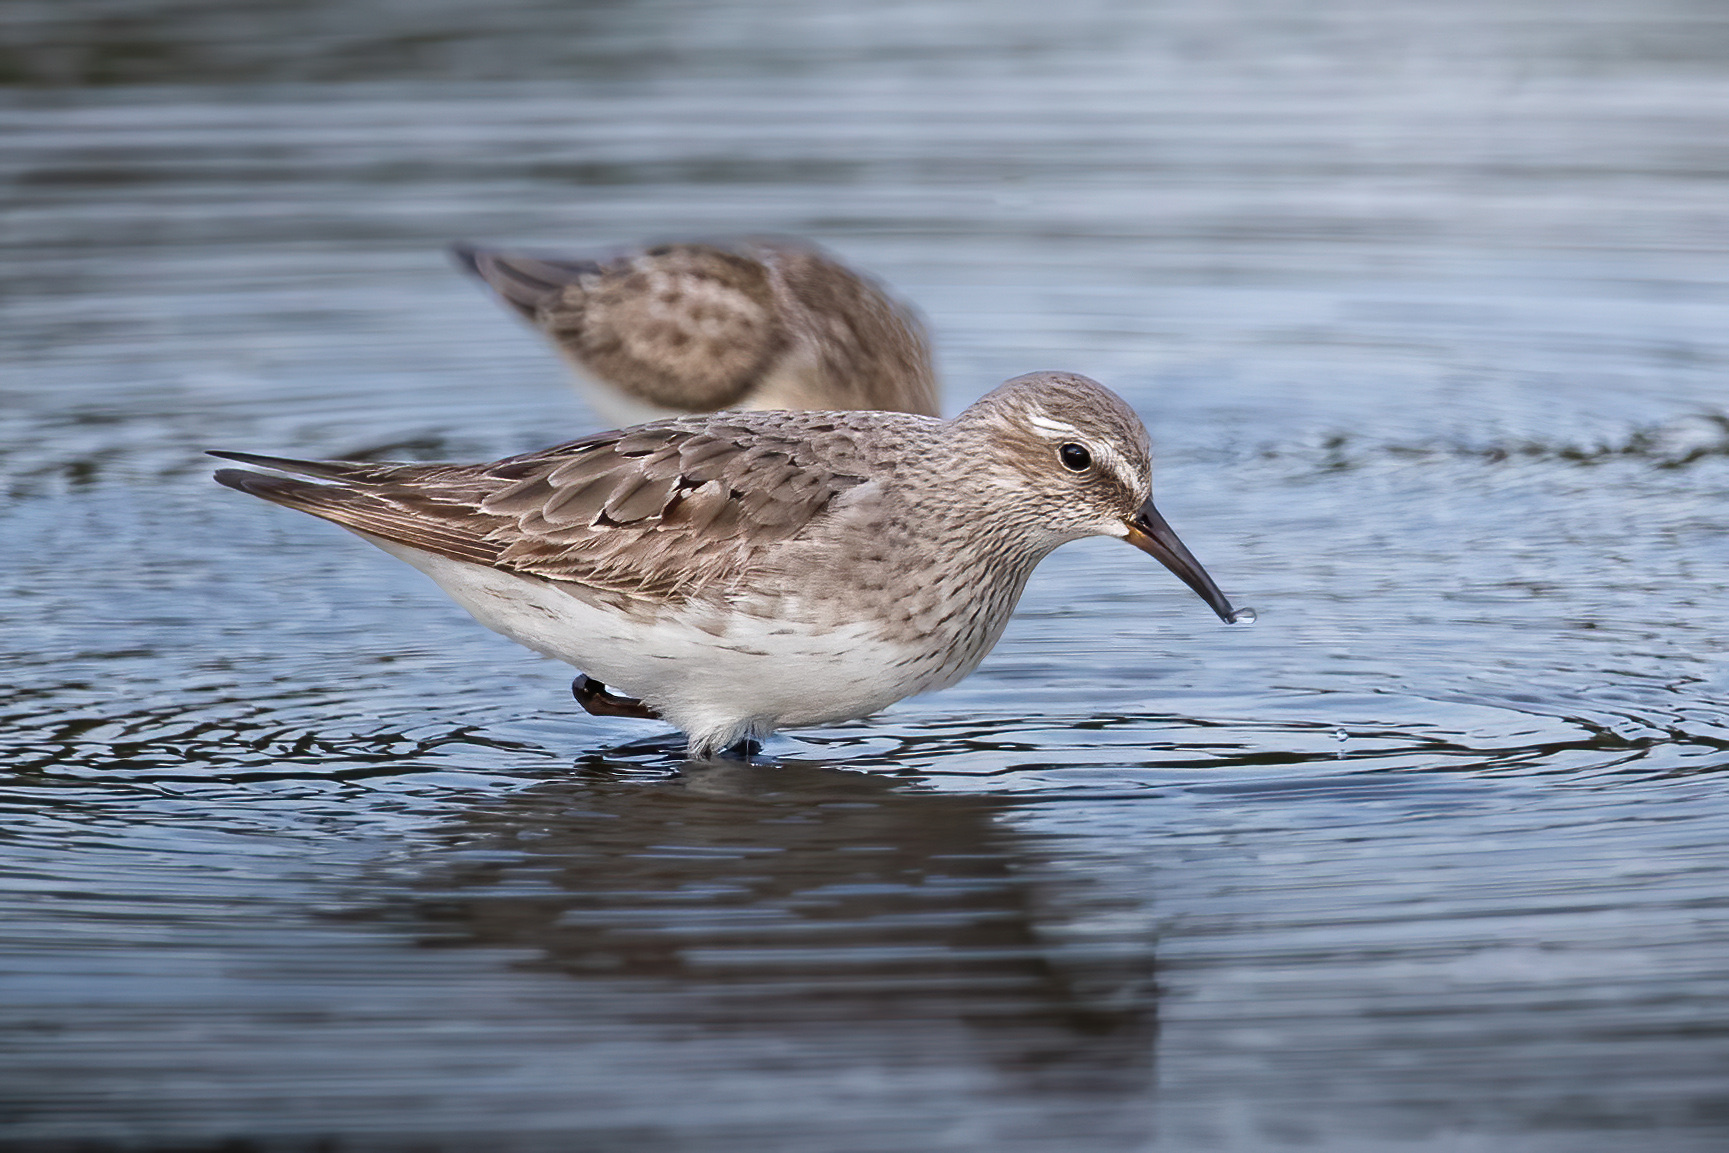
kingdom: Animalia
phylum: Chordata
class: Aves
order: Charadriiformes
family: Scolopacidae
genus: Calidris
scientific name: Calidris fuscicollis
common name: White-rumped sandpiper
